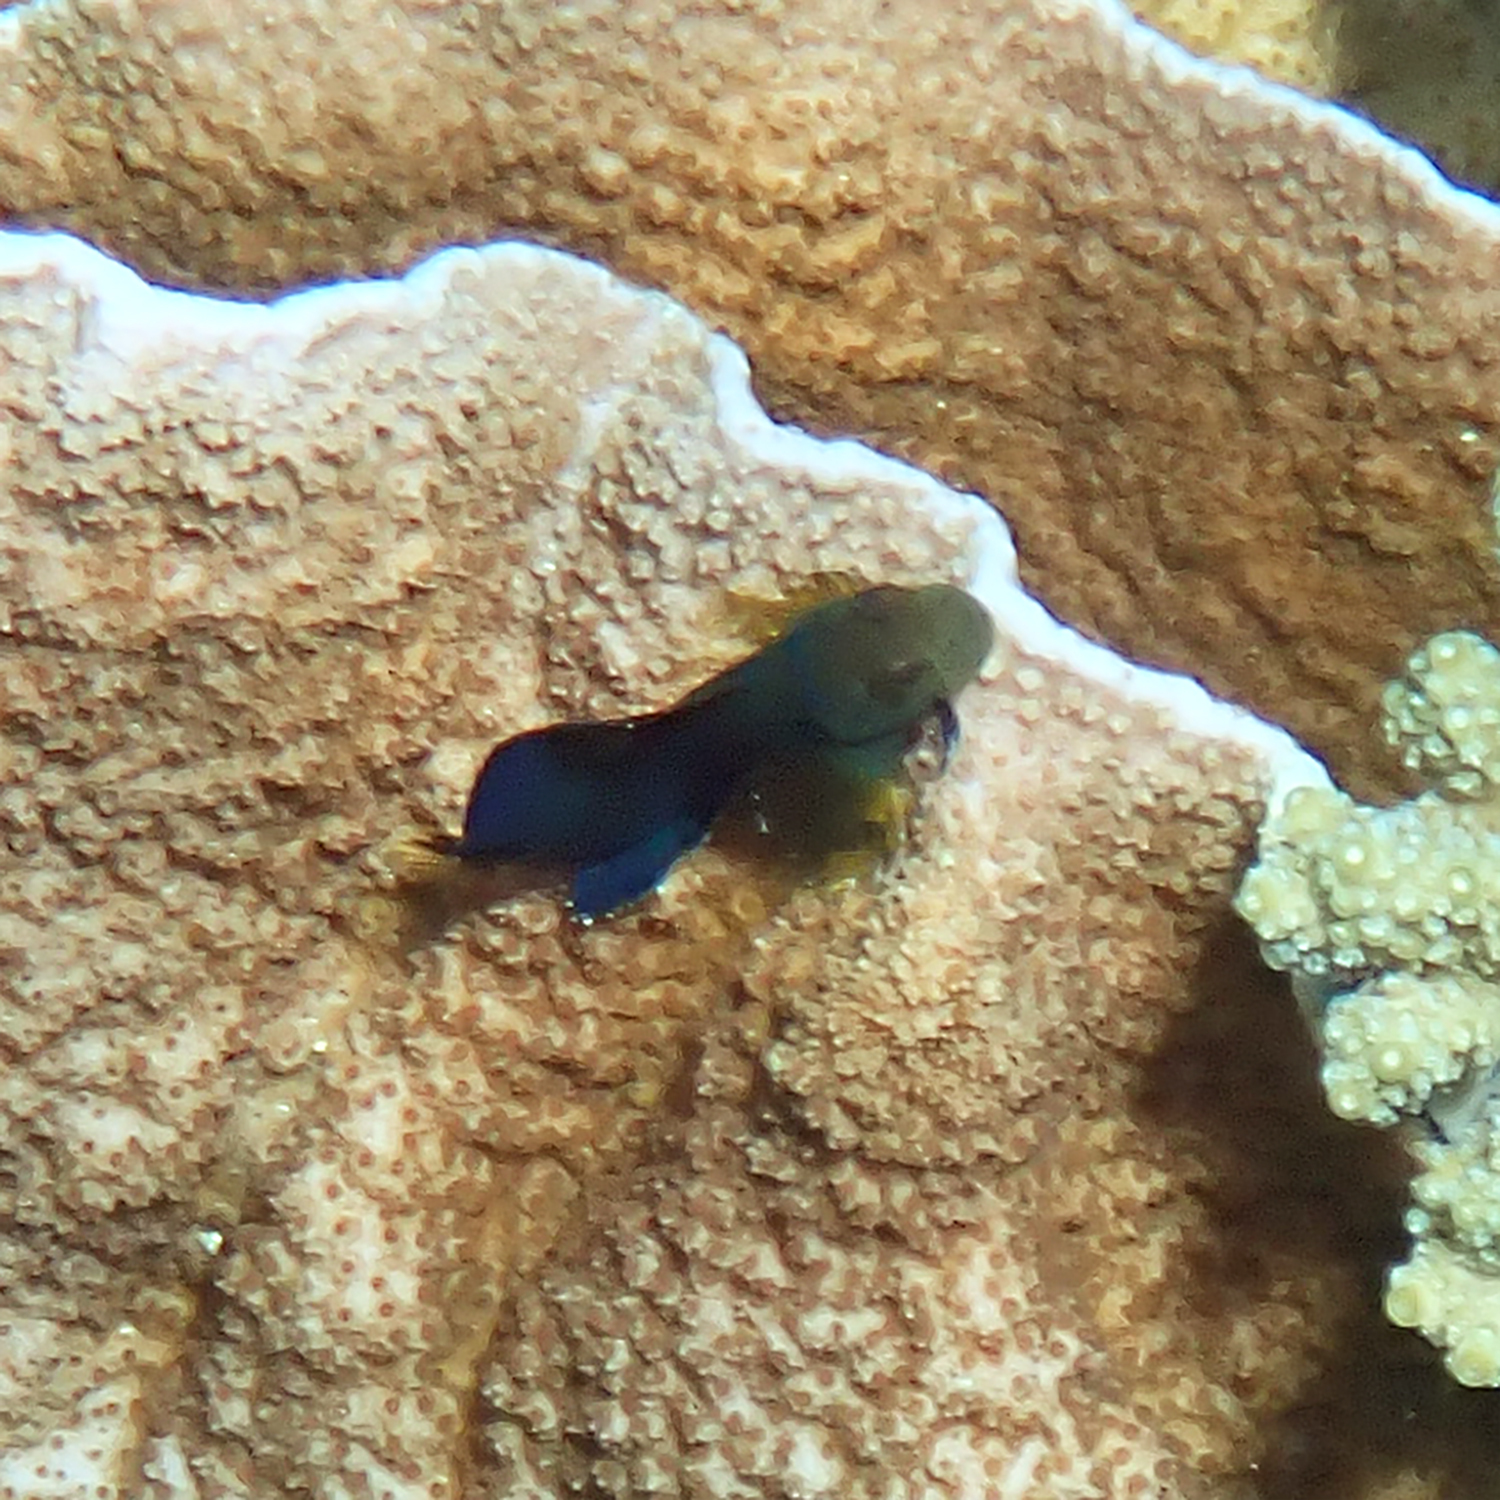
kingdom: Animalia
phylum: Chordata
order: Perciformes
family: Blenniidae
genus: Cirripectes
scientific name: Cirripectes chelomatus
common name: Lady musgrave blenny
